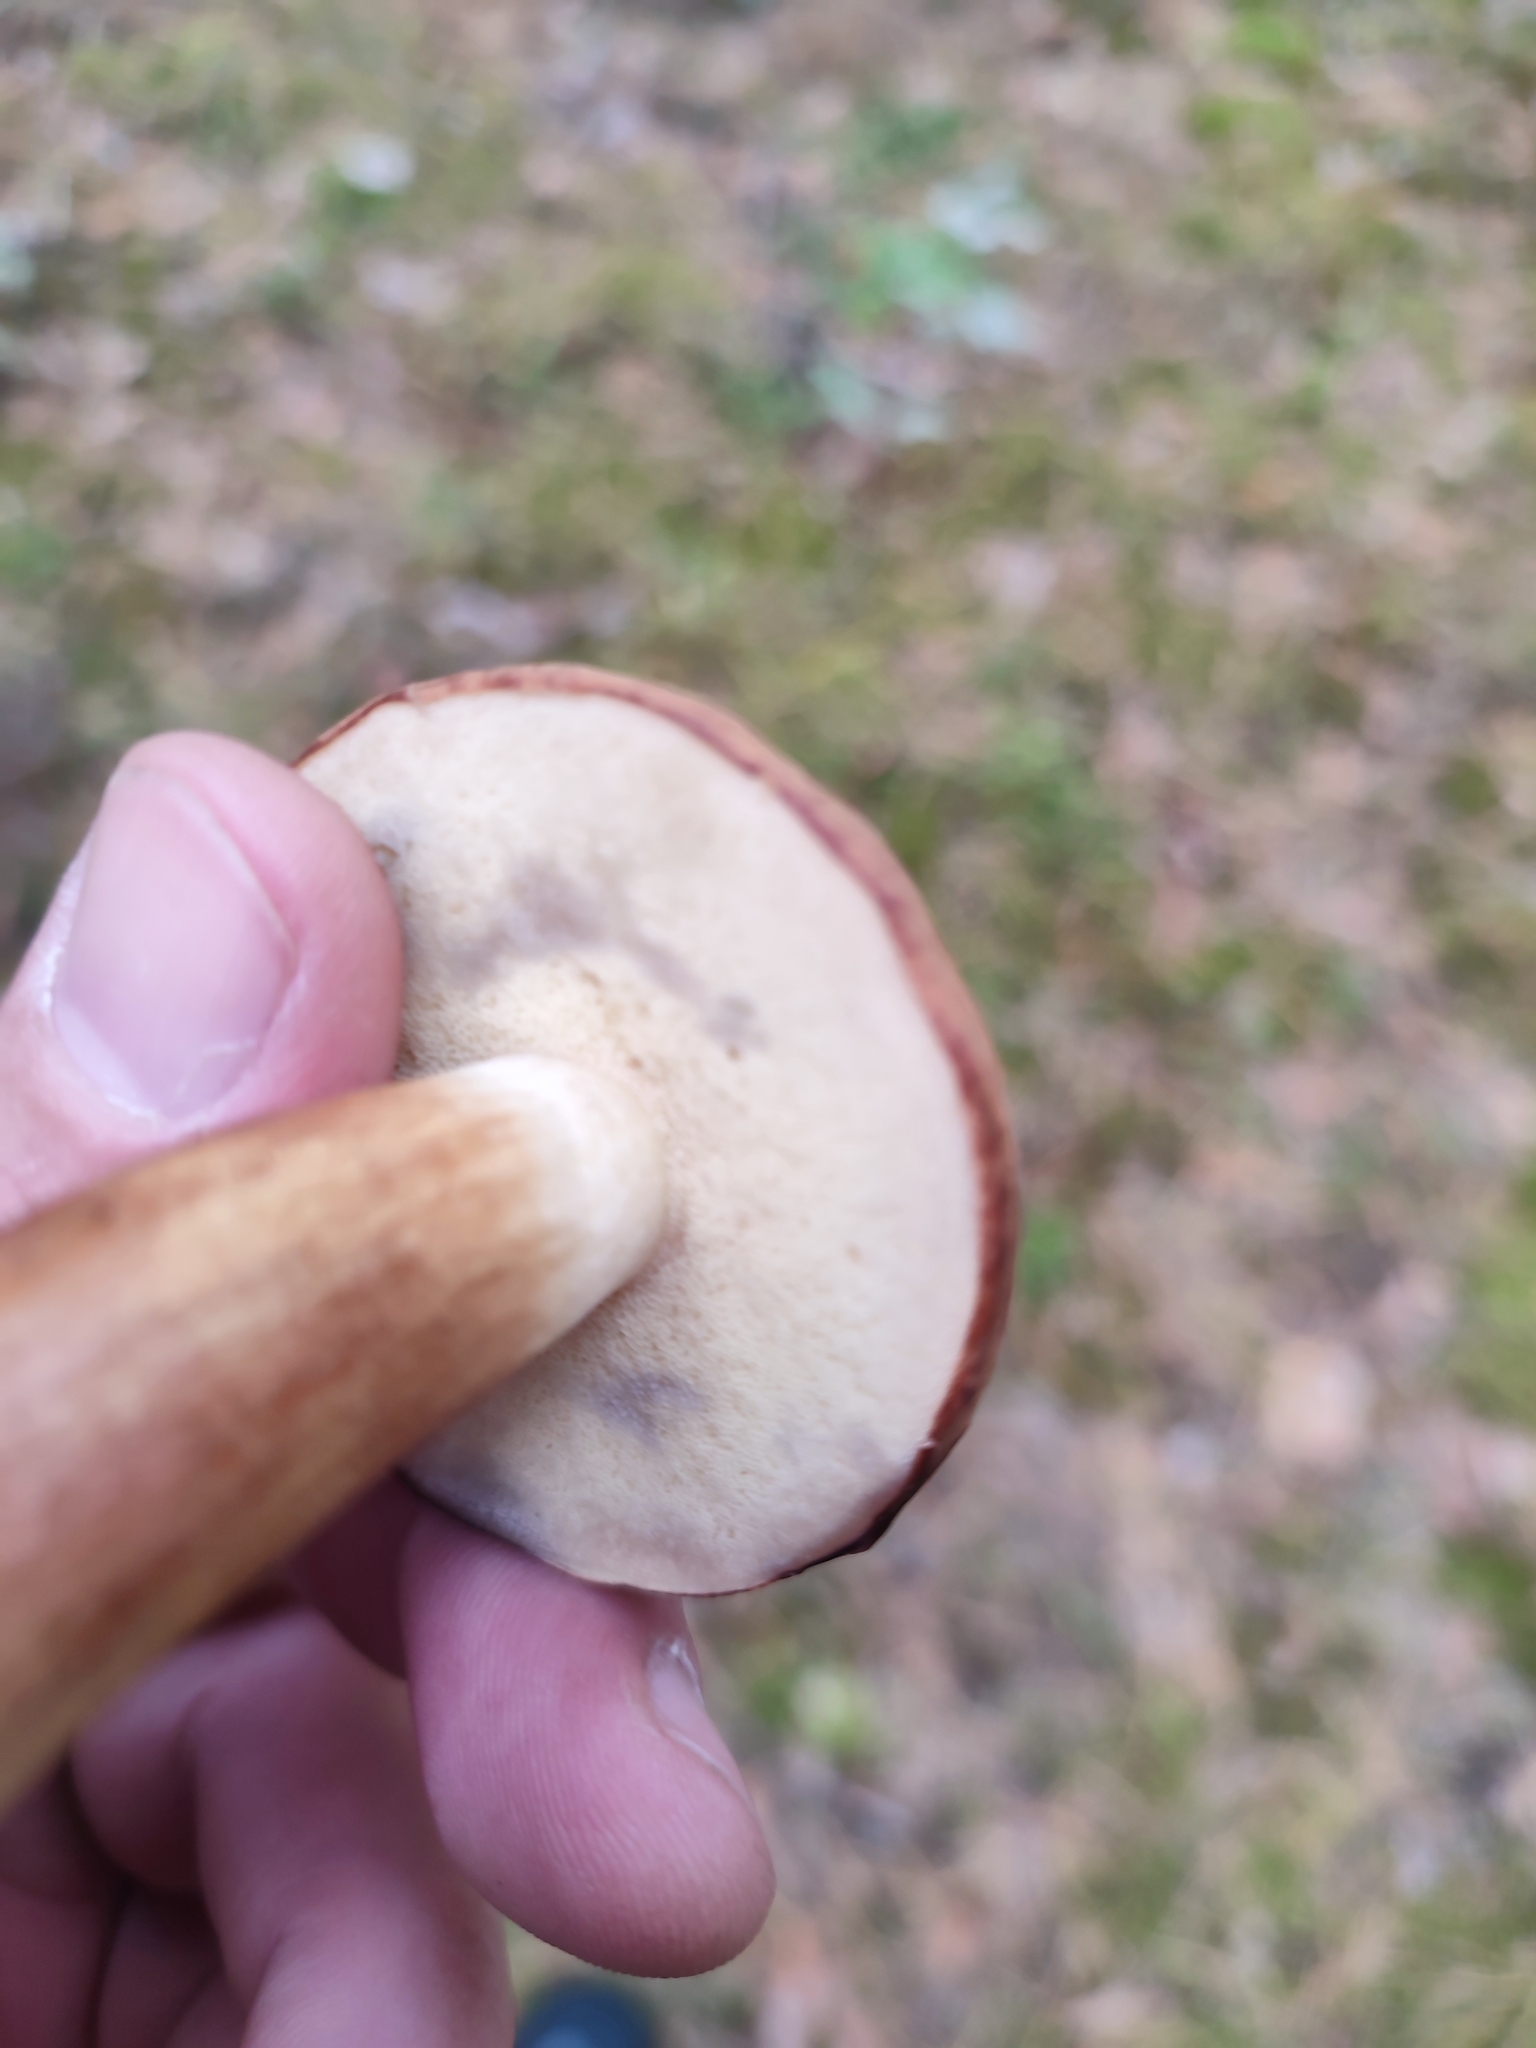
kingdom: Fungi
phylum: Basidiomycota
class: Agaricomycetes
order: Boletales
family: Boletaceae
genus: Imleria
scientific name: Imleria badia
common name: Bay bolete
